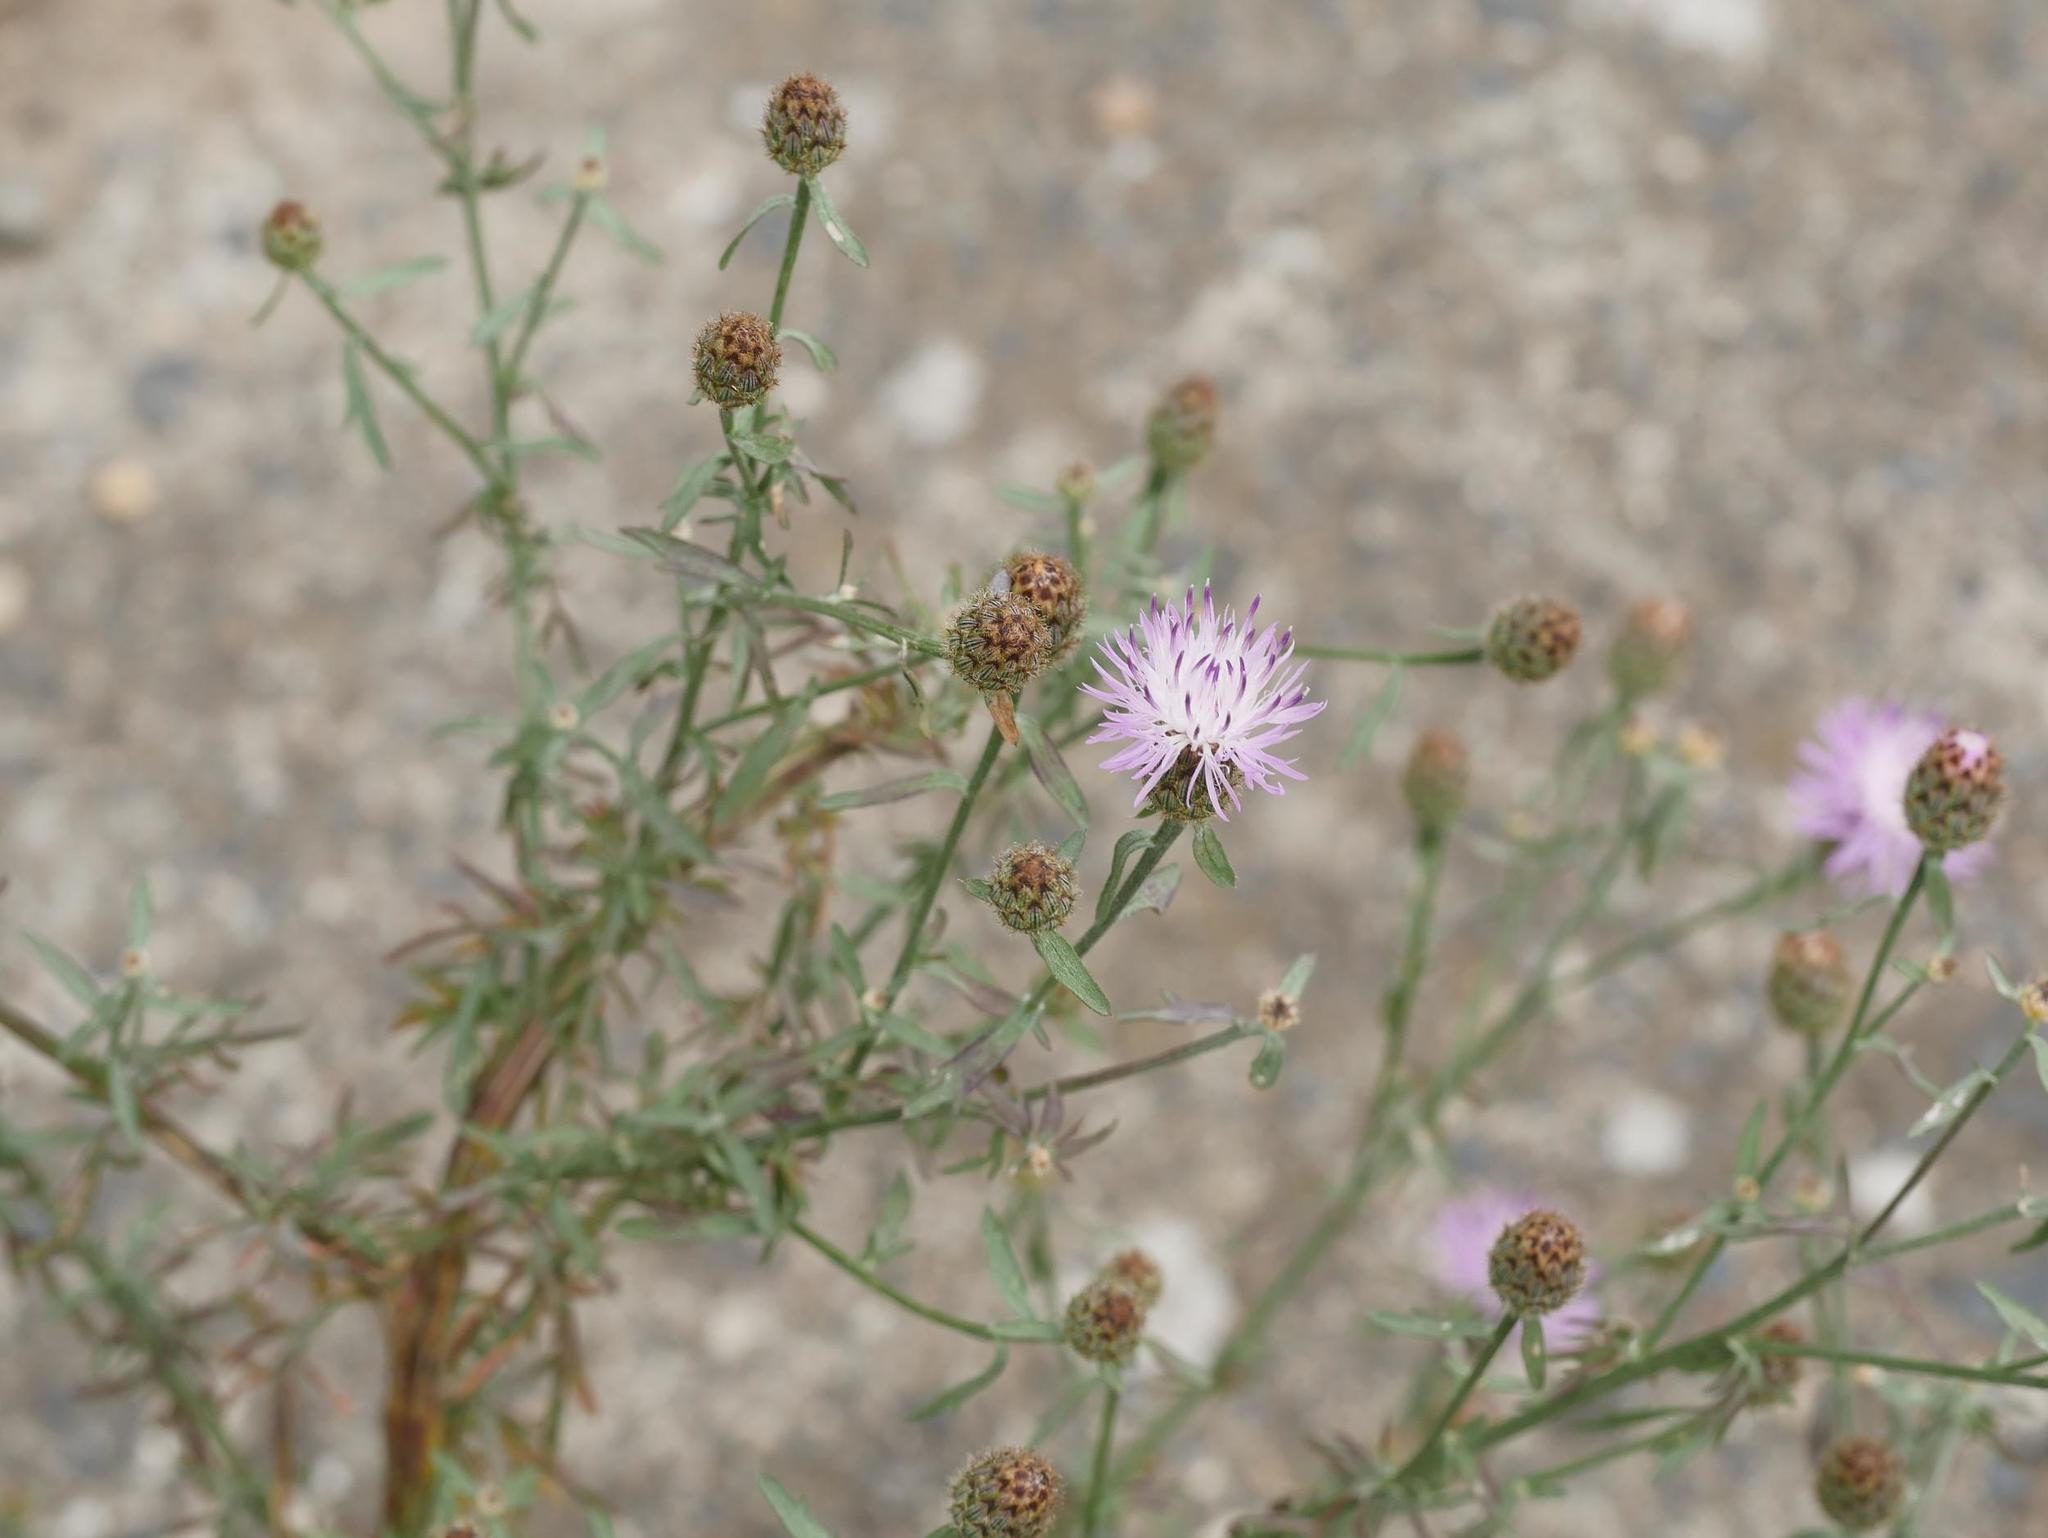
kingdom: Plantae
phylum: Tracheophyta
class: Magnoliopsida
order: Asterales
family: Asteraceae
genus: Centaurea
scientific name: Centaurea stoebe
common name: Spotted knapweed
